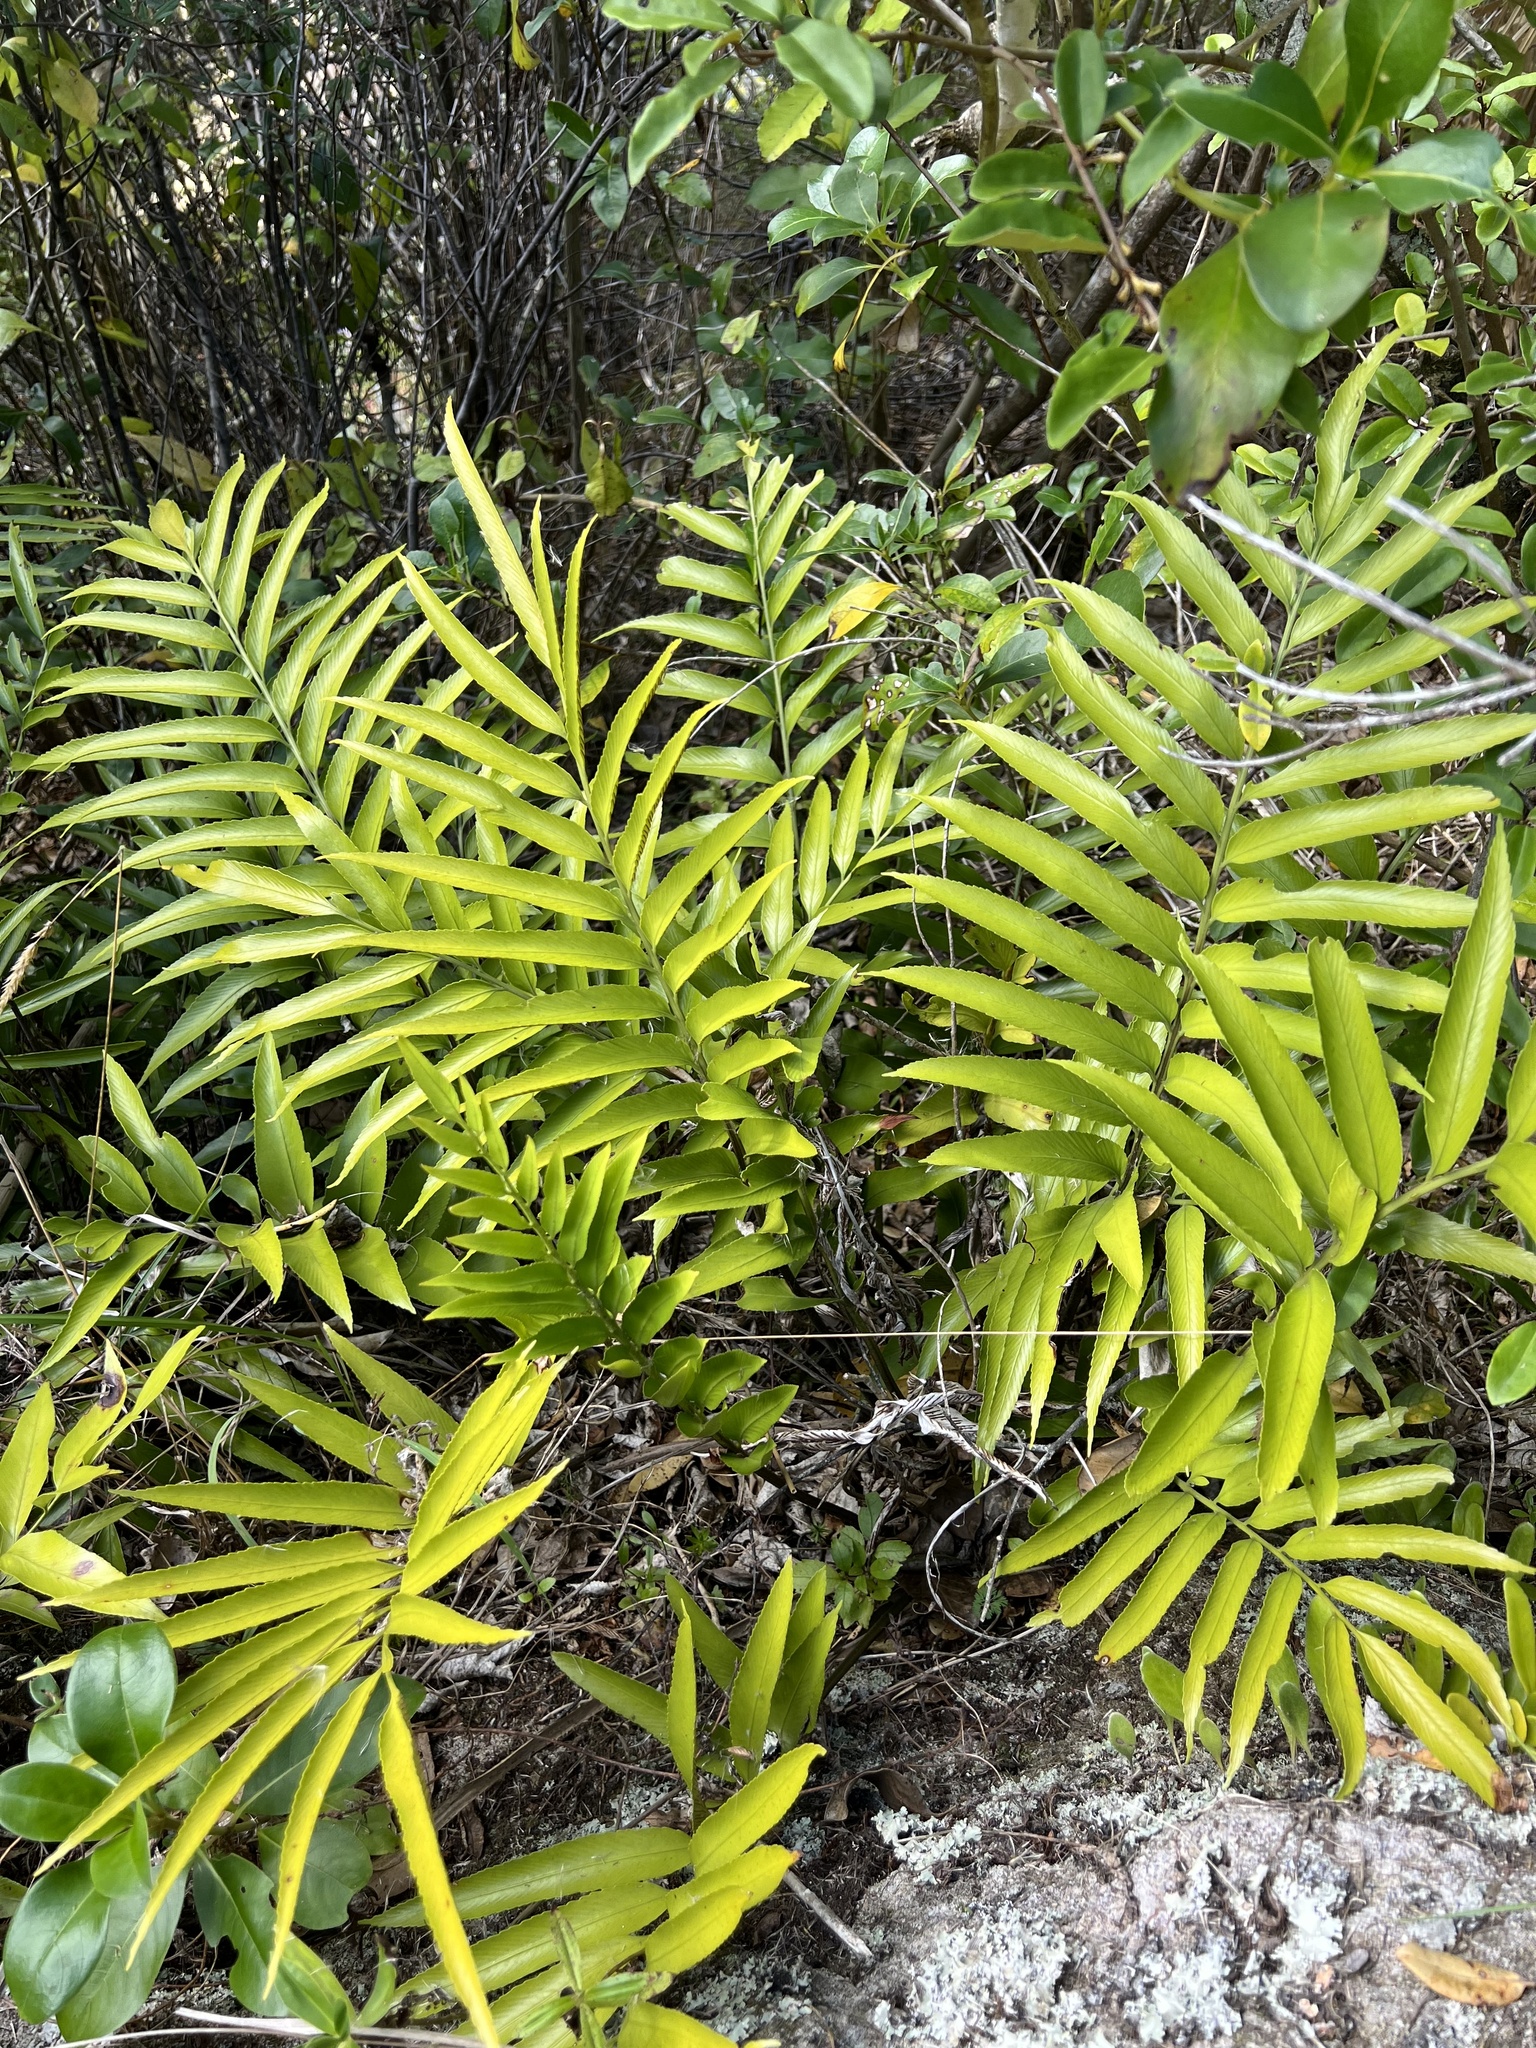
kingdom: Plantae
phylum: Tracheophyta
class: Polypodiopsida
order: Polypodiales
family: Aspleniaceae
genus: Asplenium
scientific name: Asplenium oblongifolium
